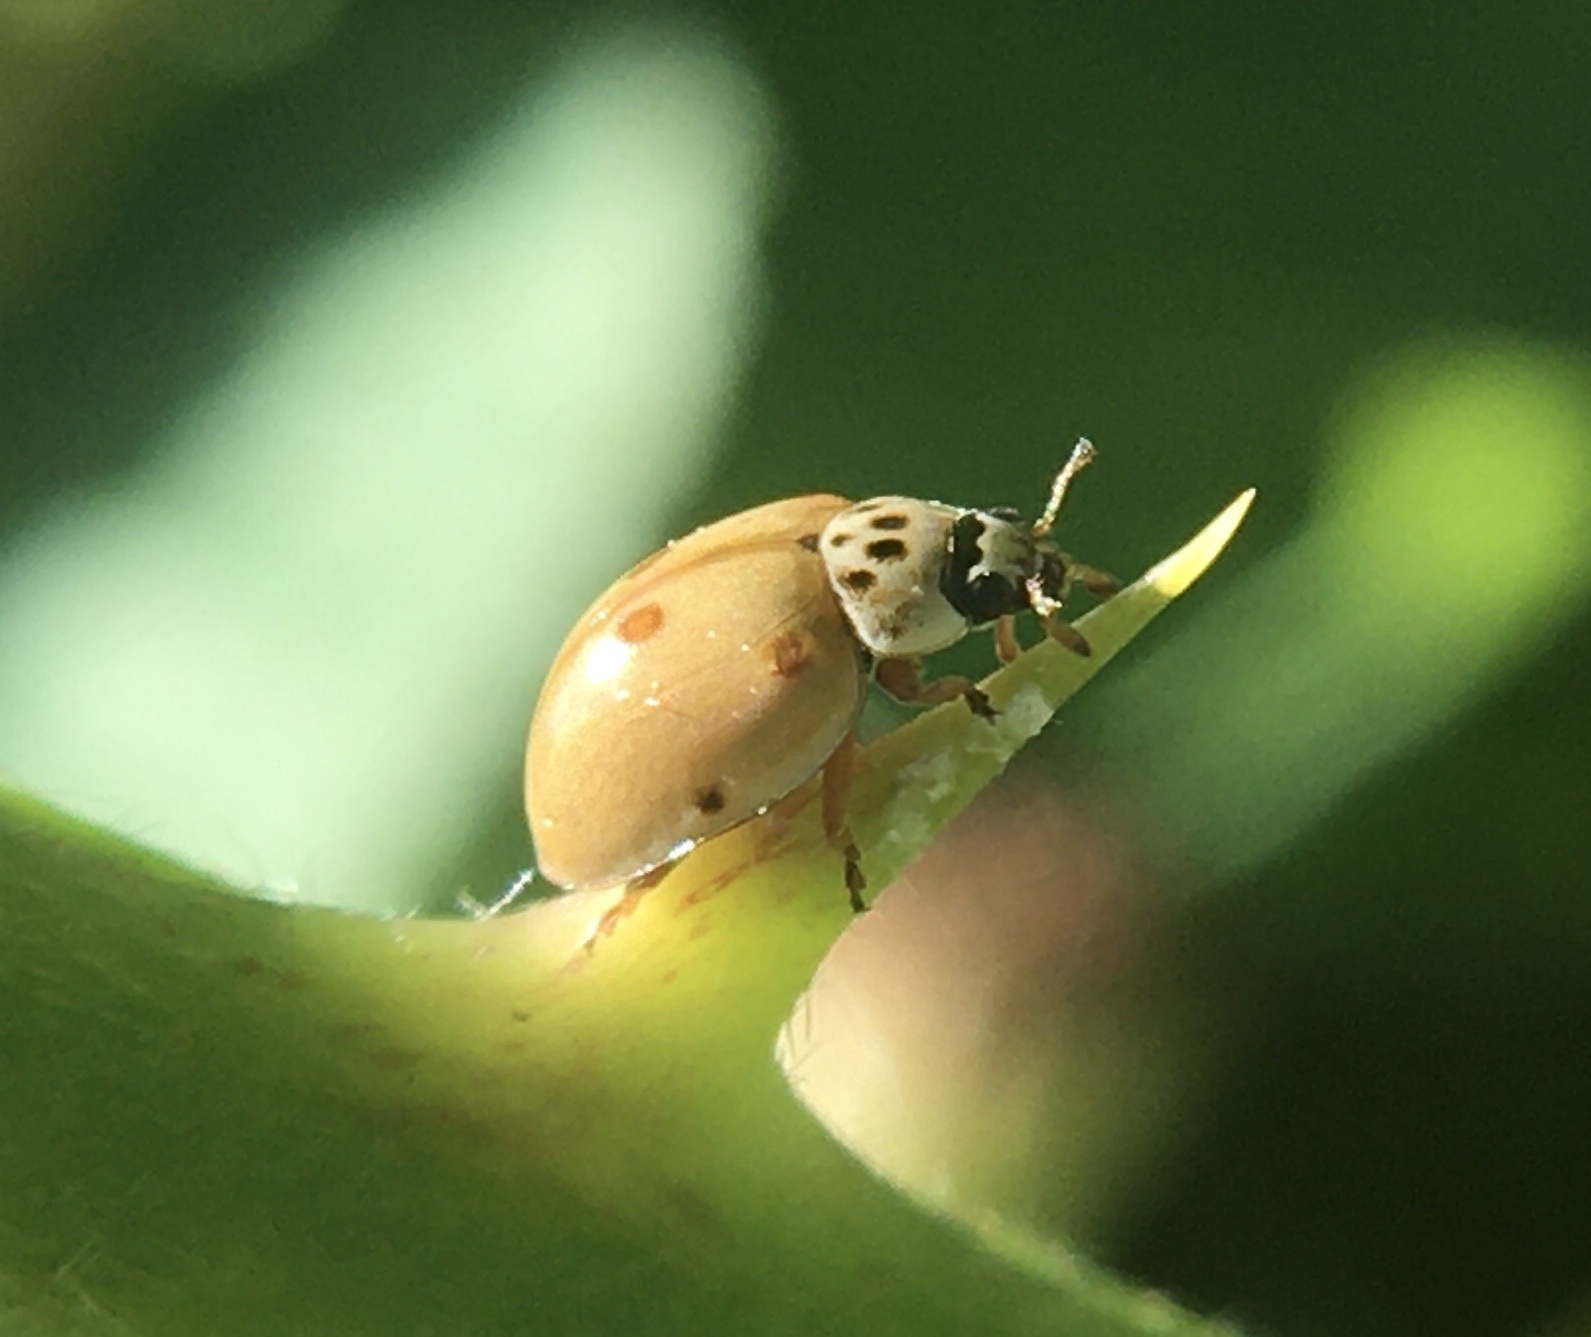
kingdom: Animalia
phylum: Arthropoda
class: Insecta
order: Coleoptera
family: Coccinellidae
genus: Adalia
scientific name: Adalia decempunctata
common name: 10-spot ladybird
